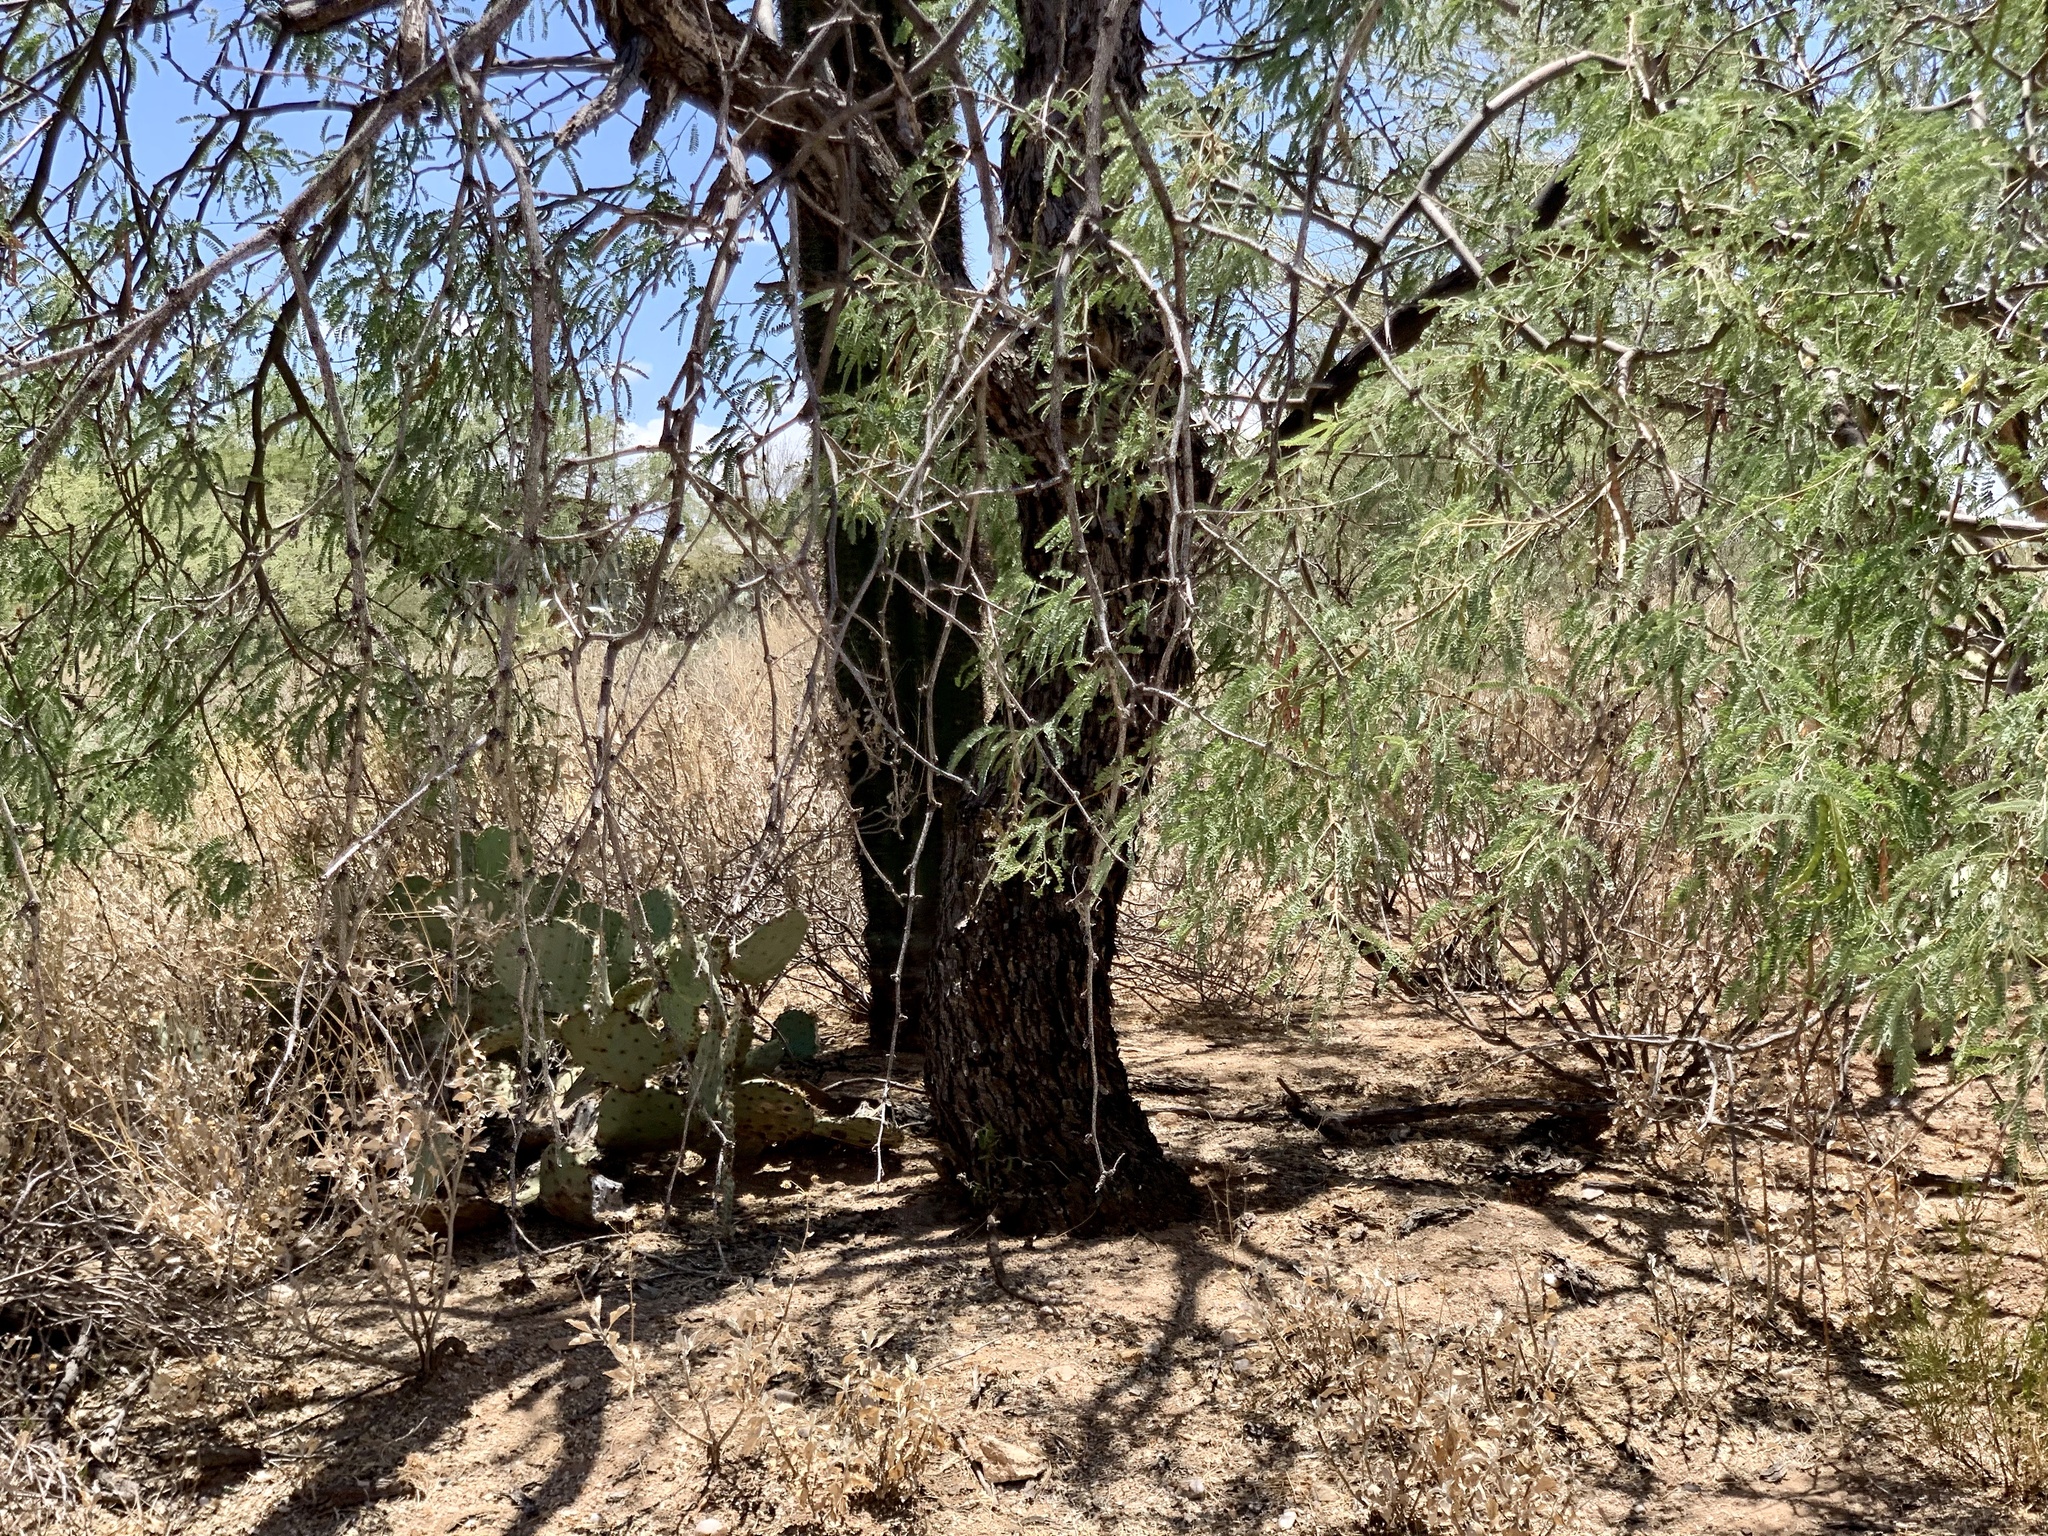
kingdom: Plantae
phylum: Tracheophyta
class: Magnoliopsida
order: Fabales
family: Fabaceae
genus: Prosopis
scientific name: Prosopis glandulosa
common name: Honey mesquite
